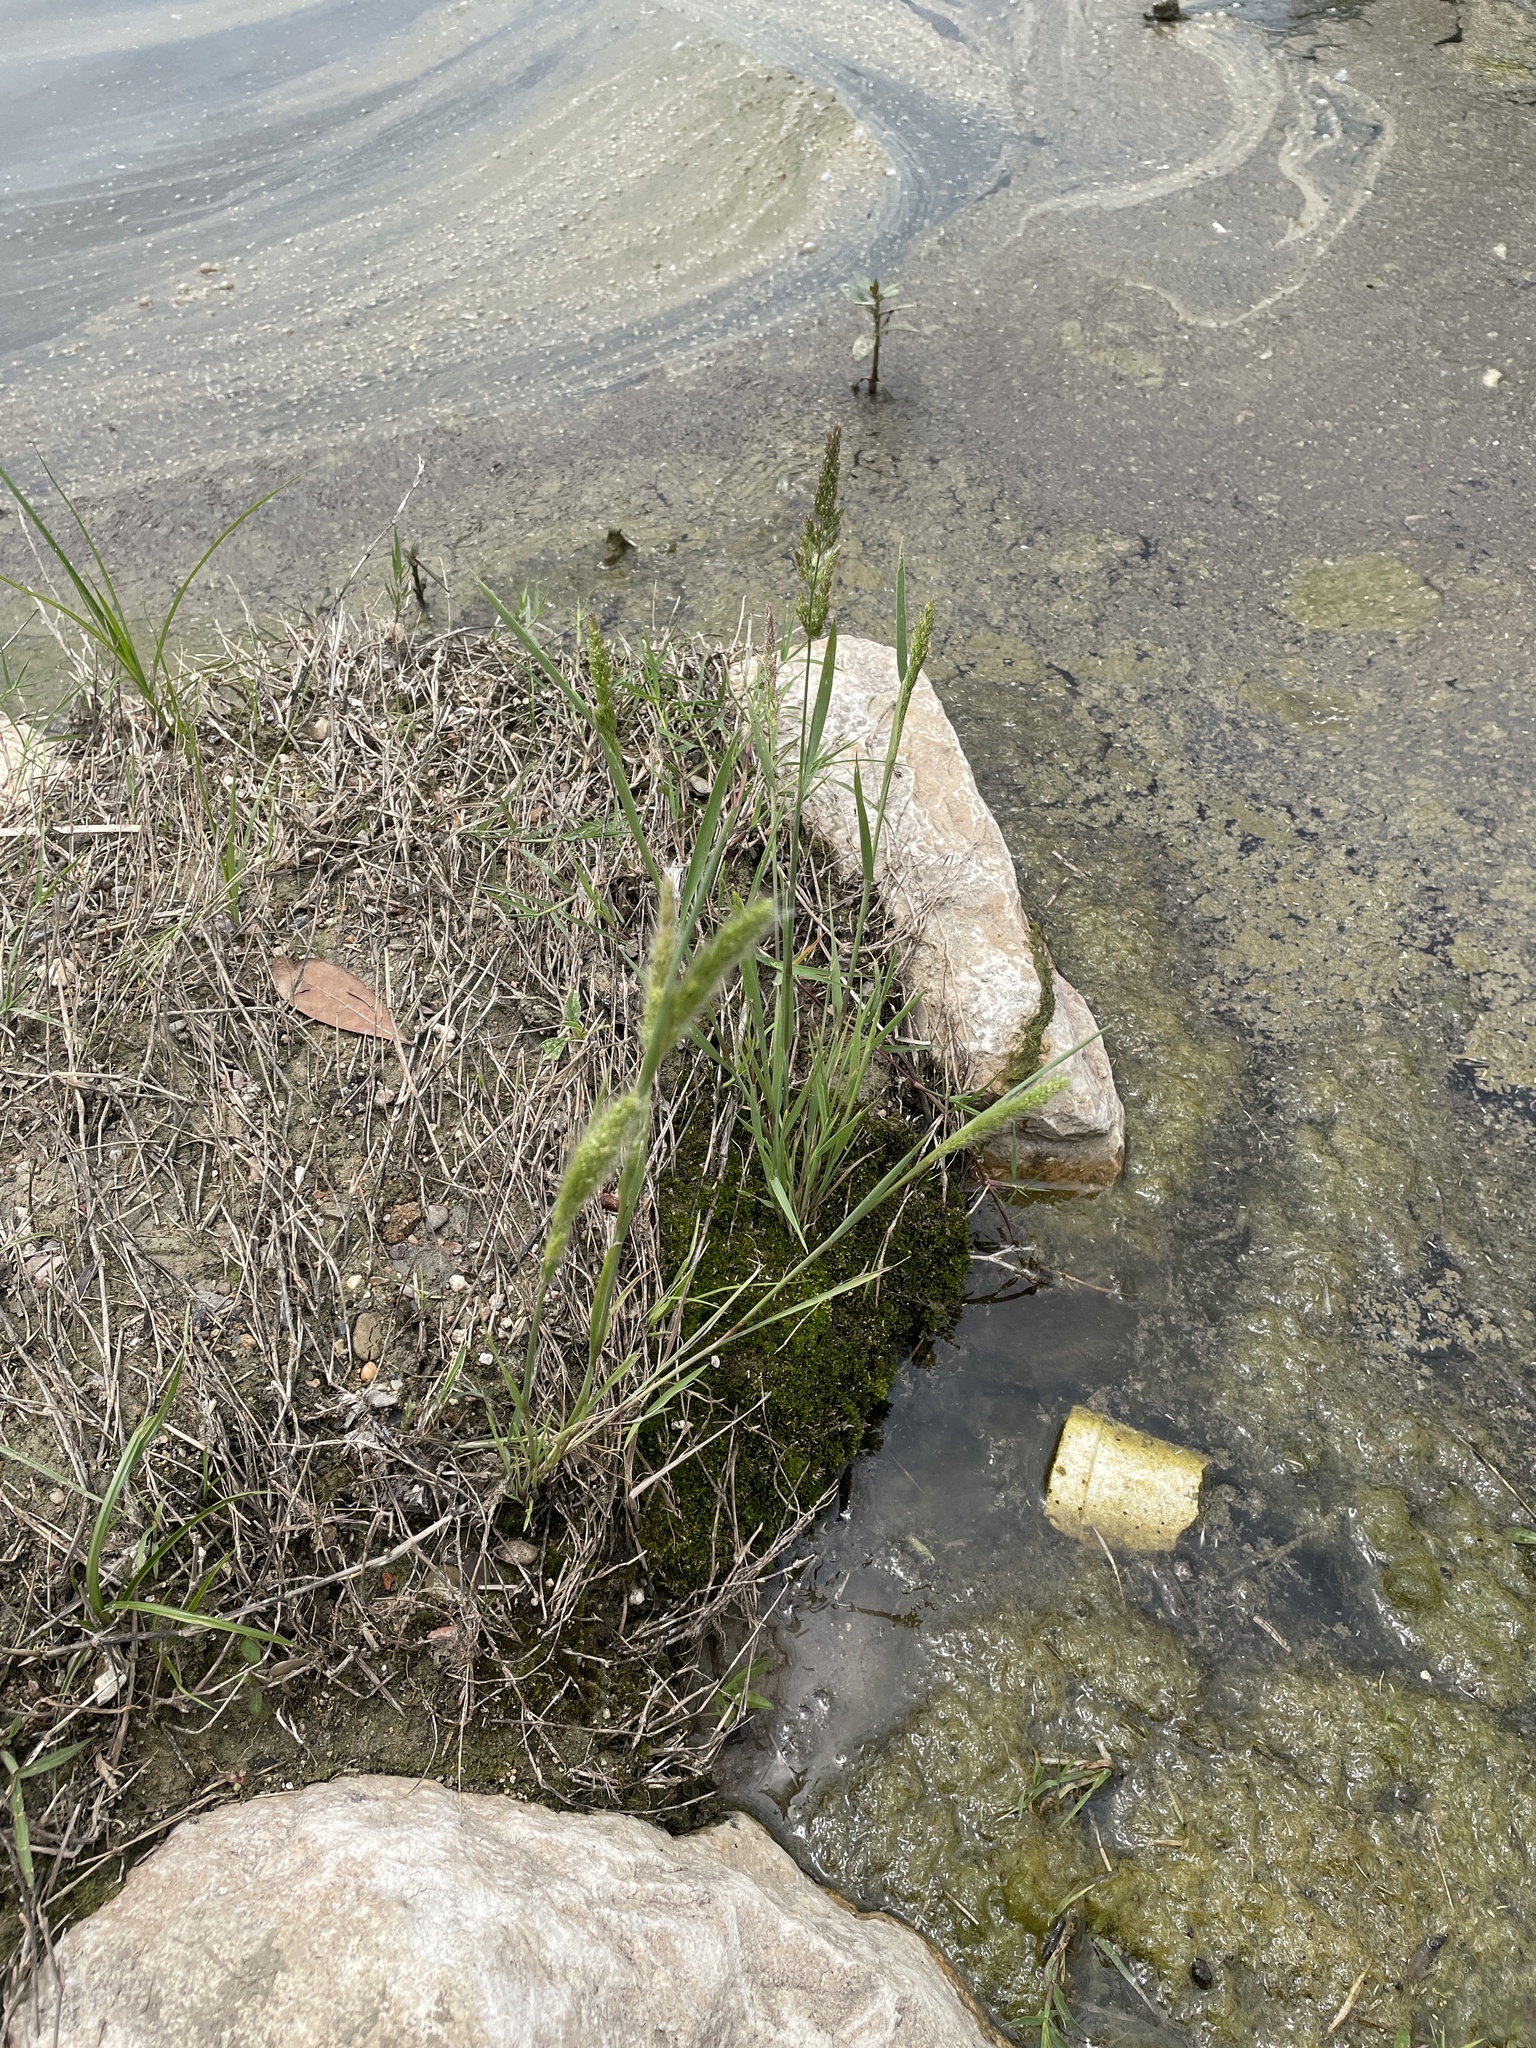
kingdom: Plantae
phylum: Tracheophyta
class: Liliopsida
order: Poales
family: Poaceae
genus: Polypogon
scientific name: Polypogon monspeliensis
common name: Annual rabbitsfoot grass
